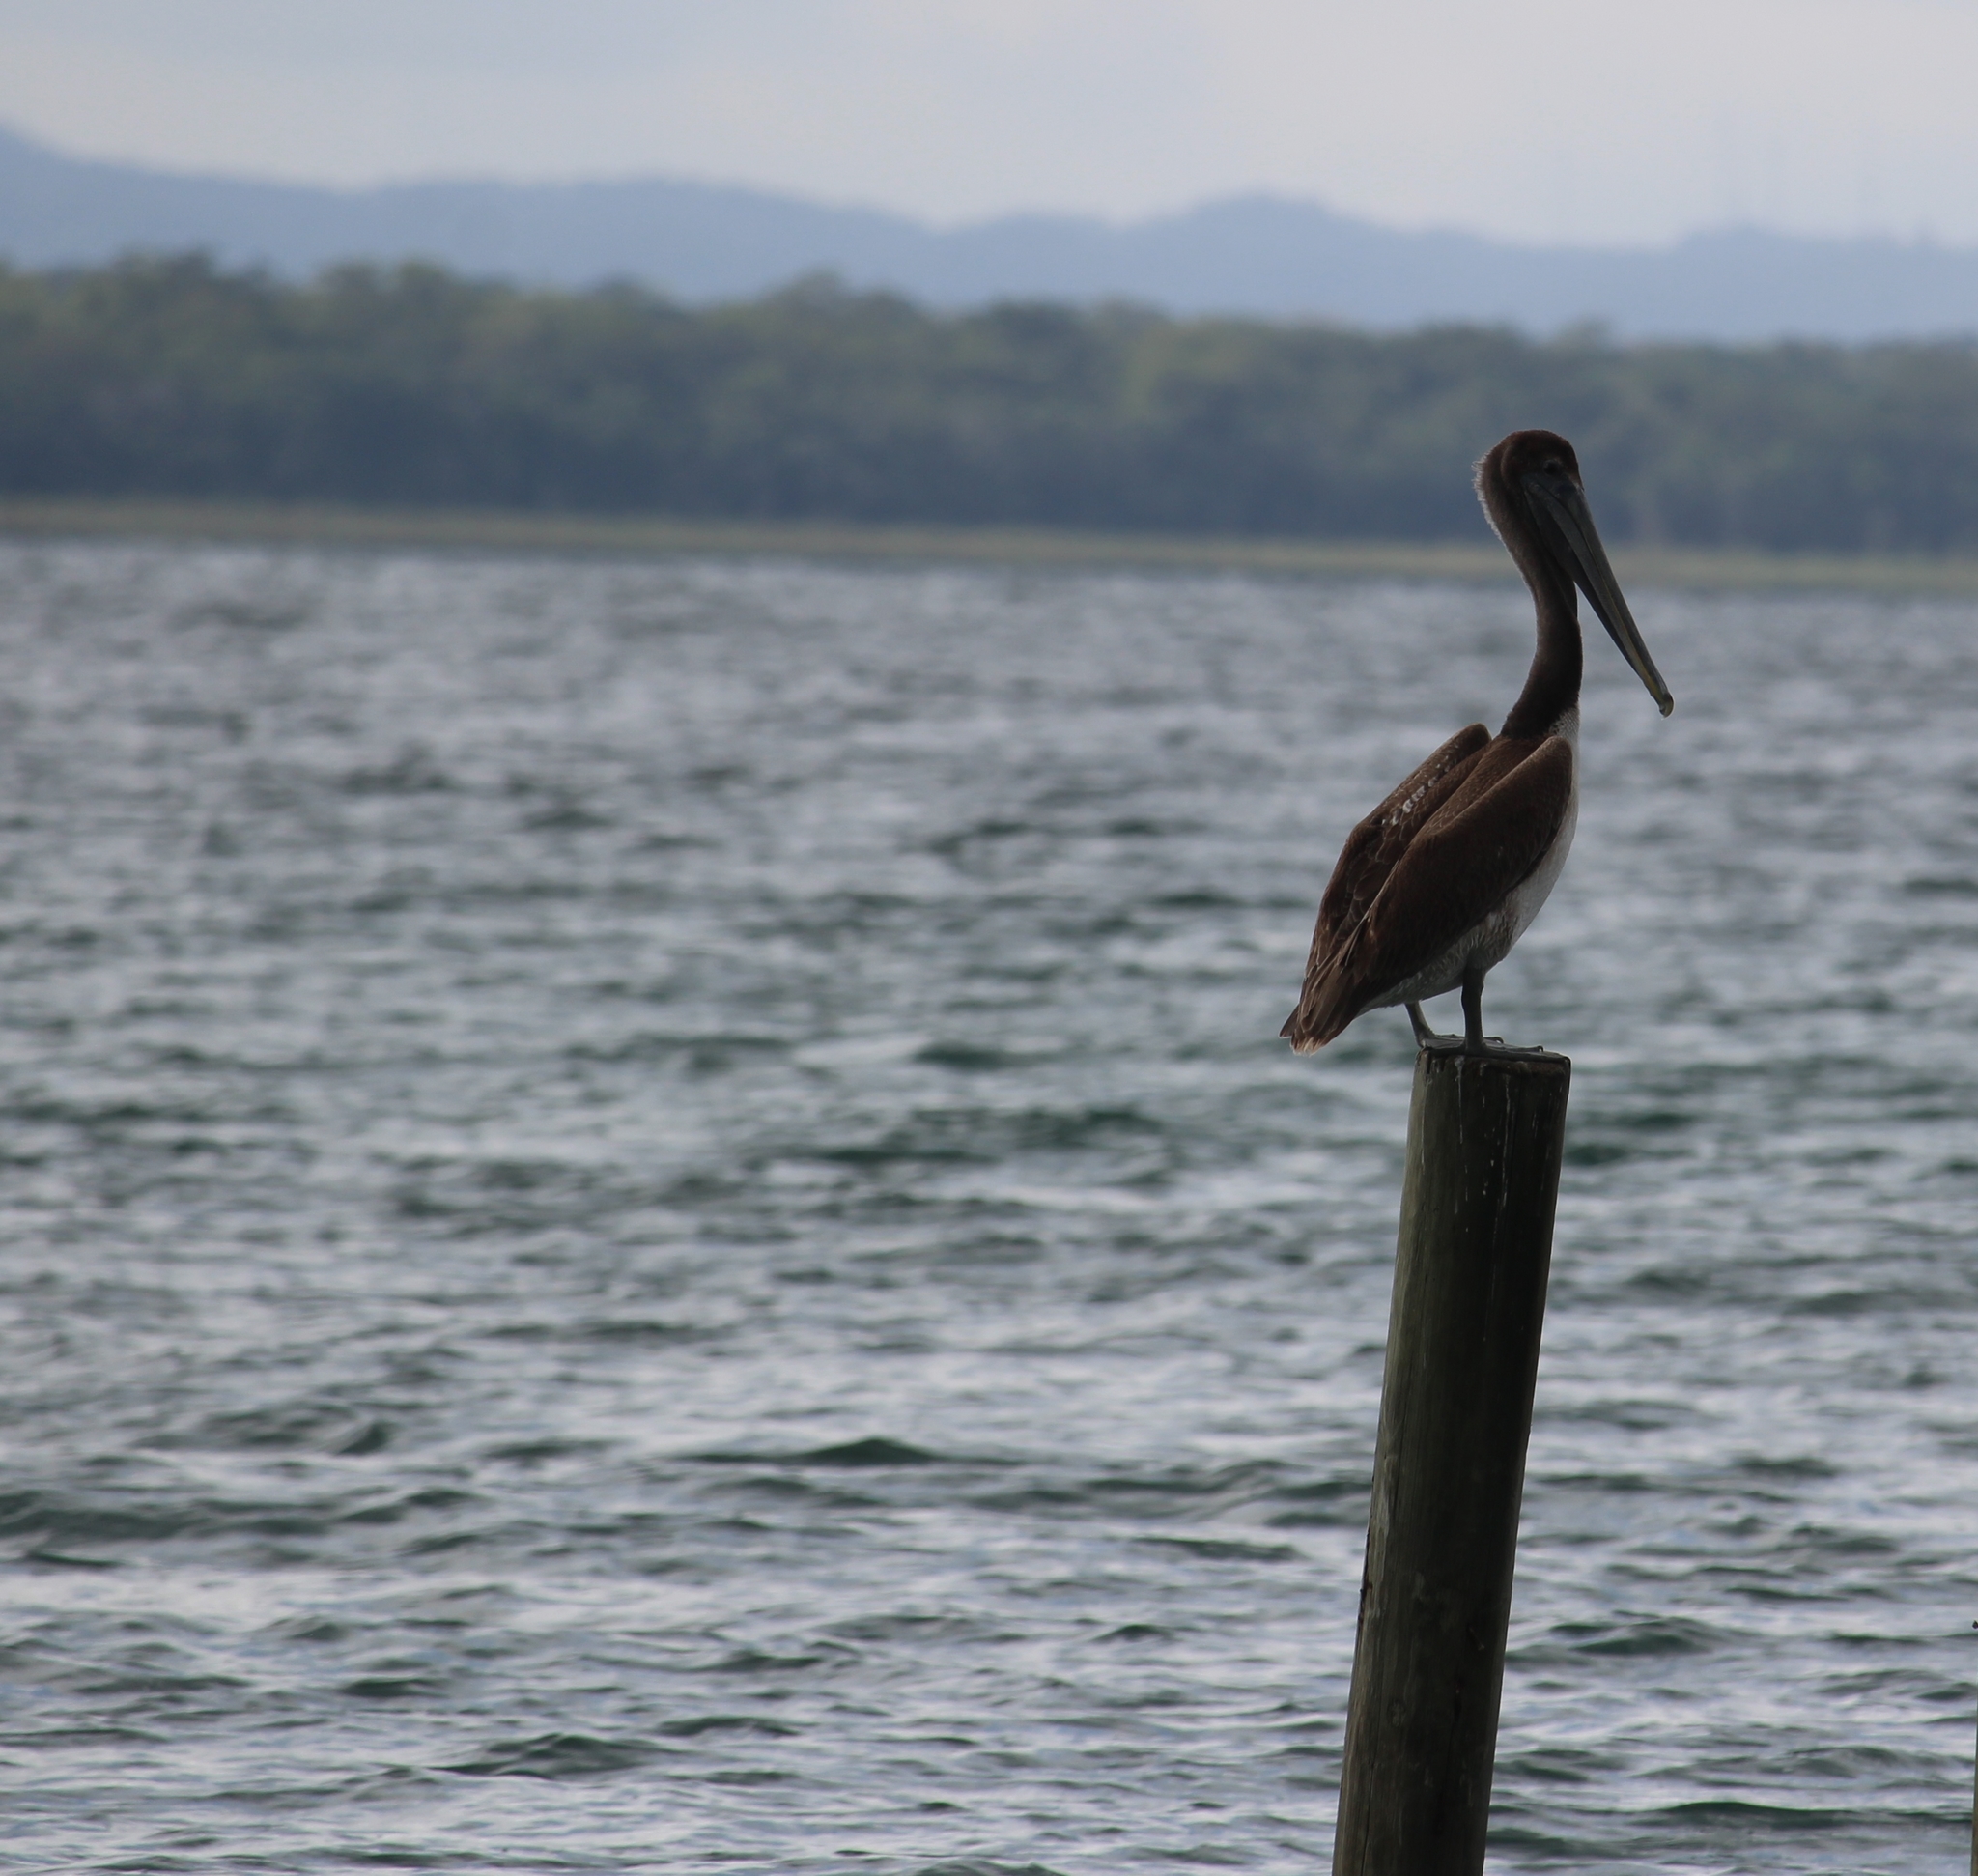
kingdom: Animalia
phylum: Chordata
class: Aves
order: Pelecaniformes
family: Pelecanidae
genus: Pelecanus
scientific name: Pelecanus occidentalis
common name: Brown pelican
